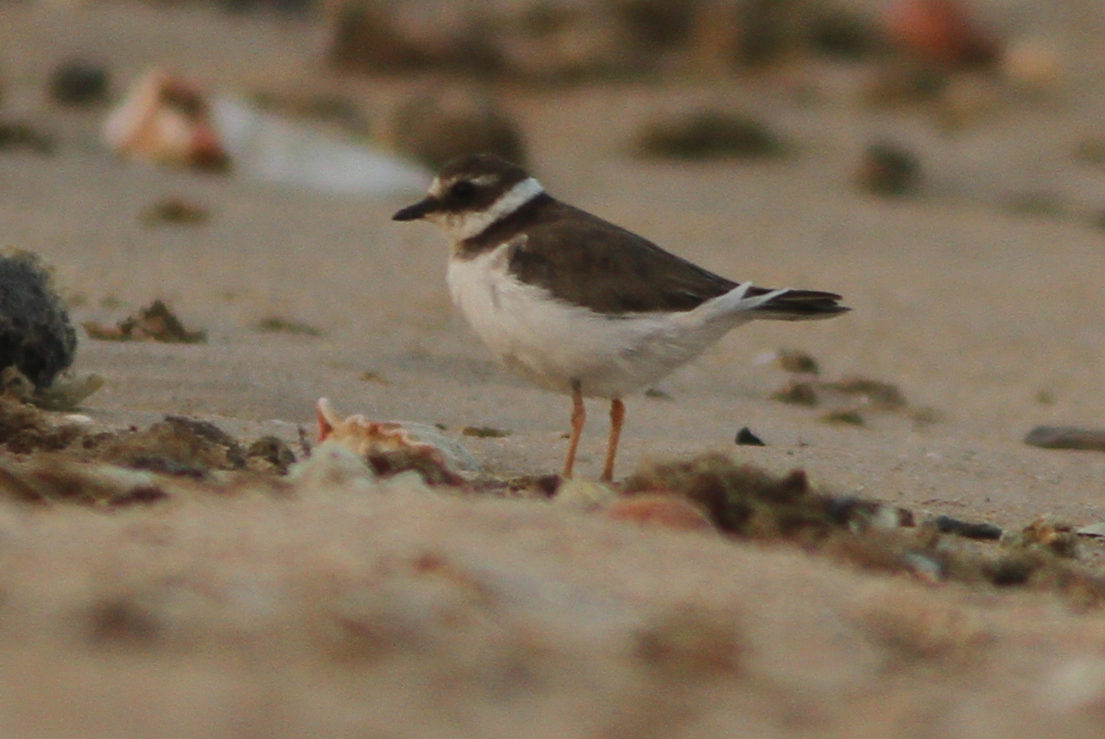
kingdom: Animalia
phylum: Chordata
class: Aves
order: Charadriiformes
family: Charadriidae
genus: Charadrius
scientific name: Charadrius hiaticula
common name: Common ringed plover
